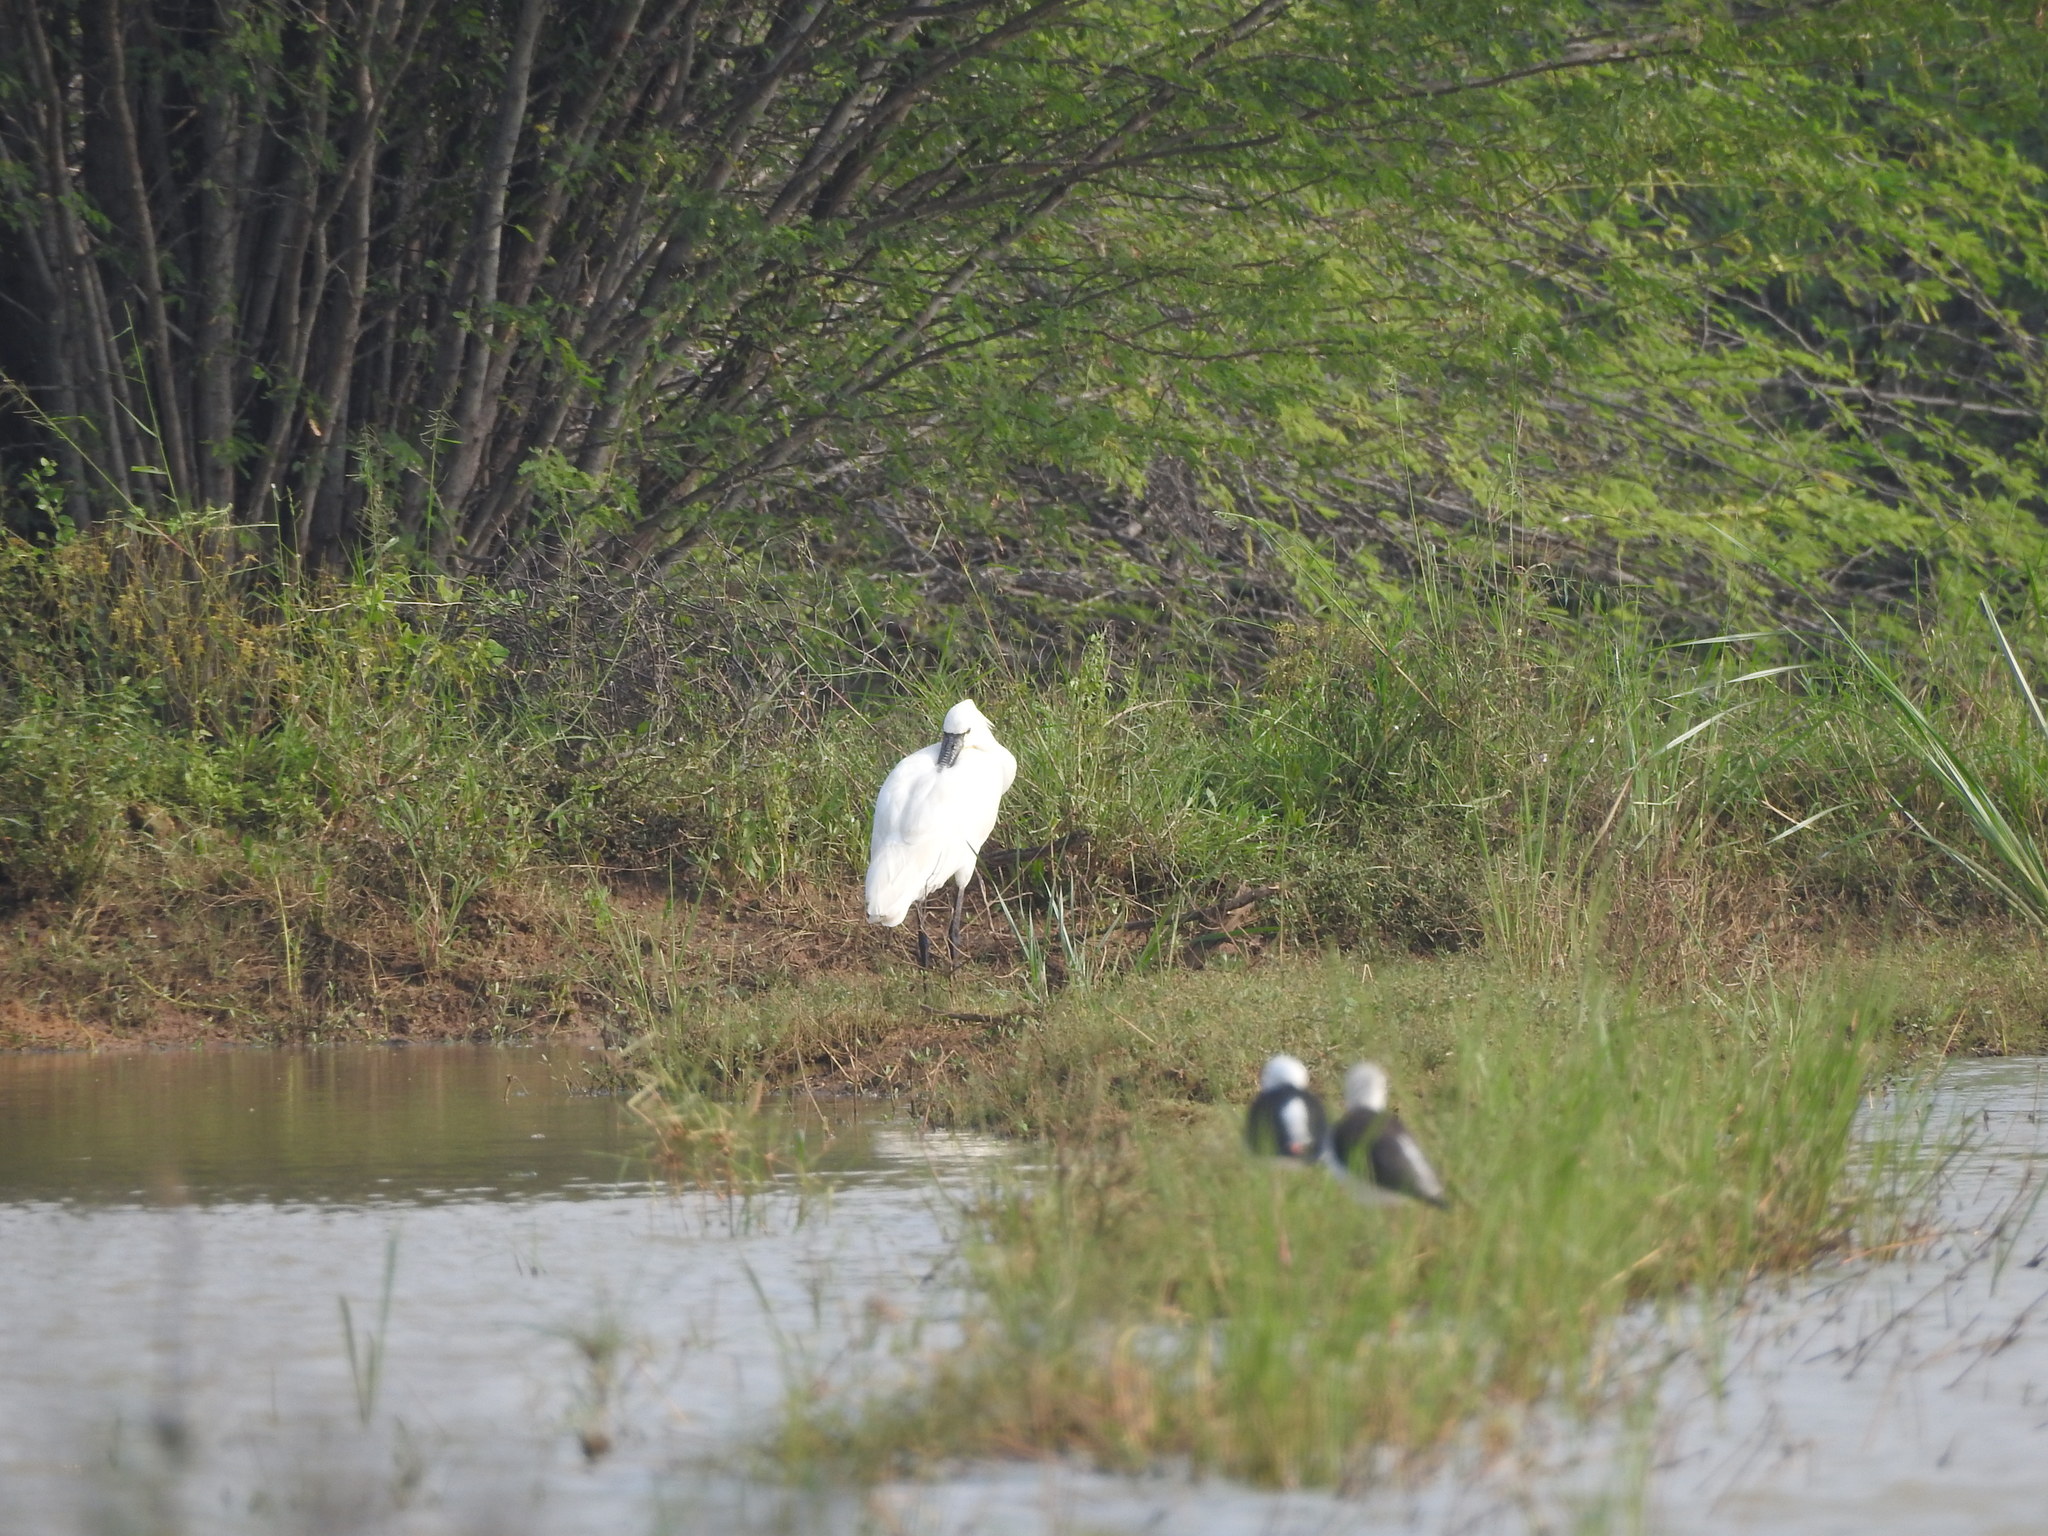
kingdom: Animalia
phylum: Chordata
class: Aves
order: Pelecaniformes
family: Threskiornithidae
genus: Platalea
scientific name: Platalea leucorodia
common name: Eurasian spoonbill
